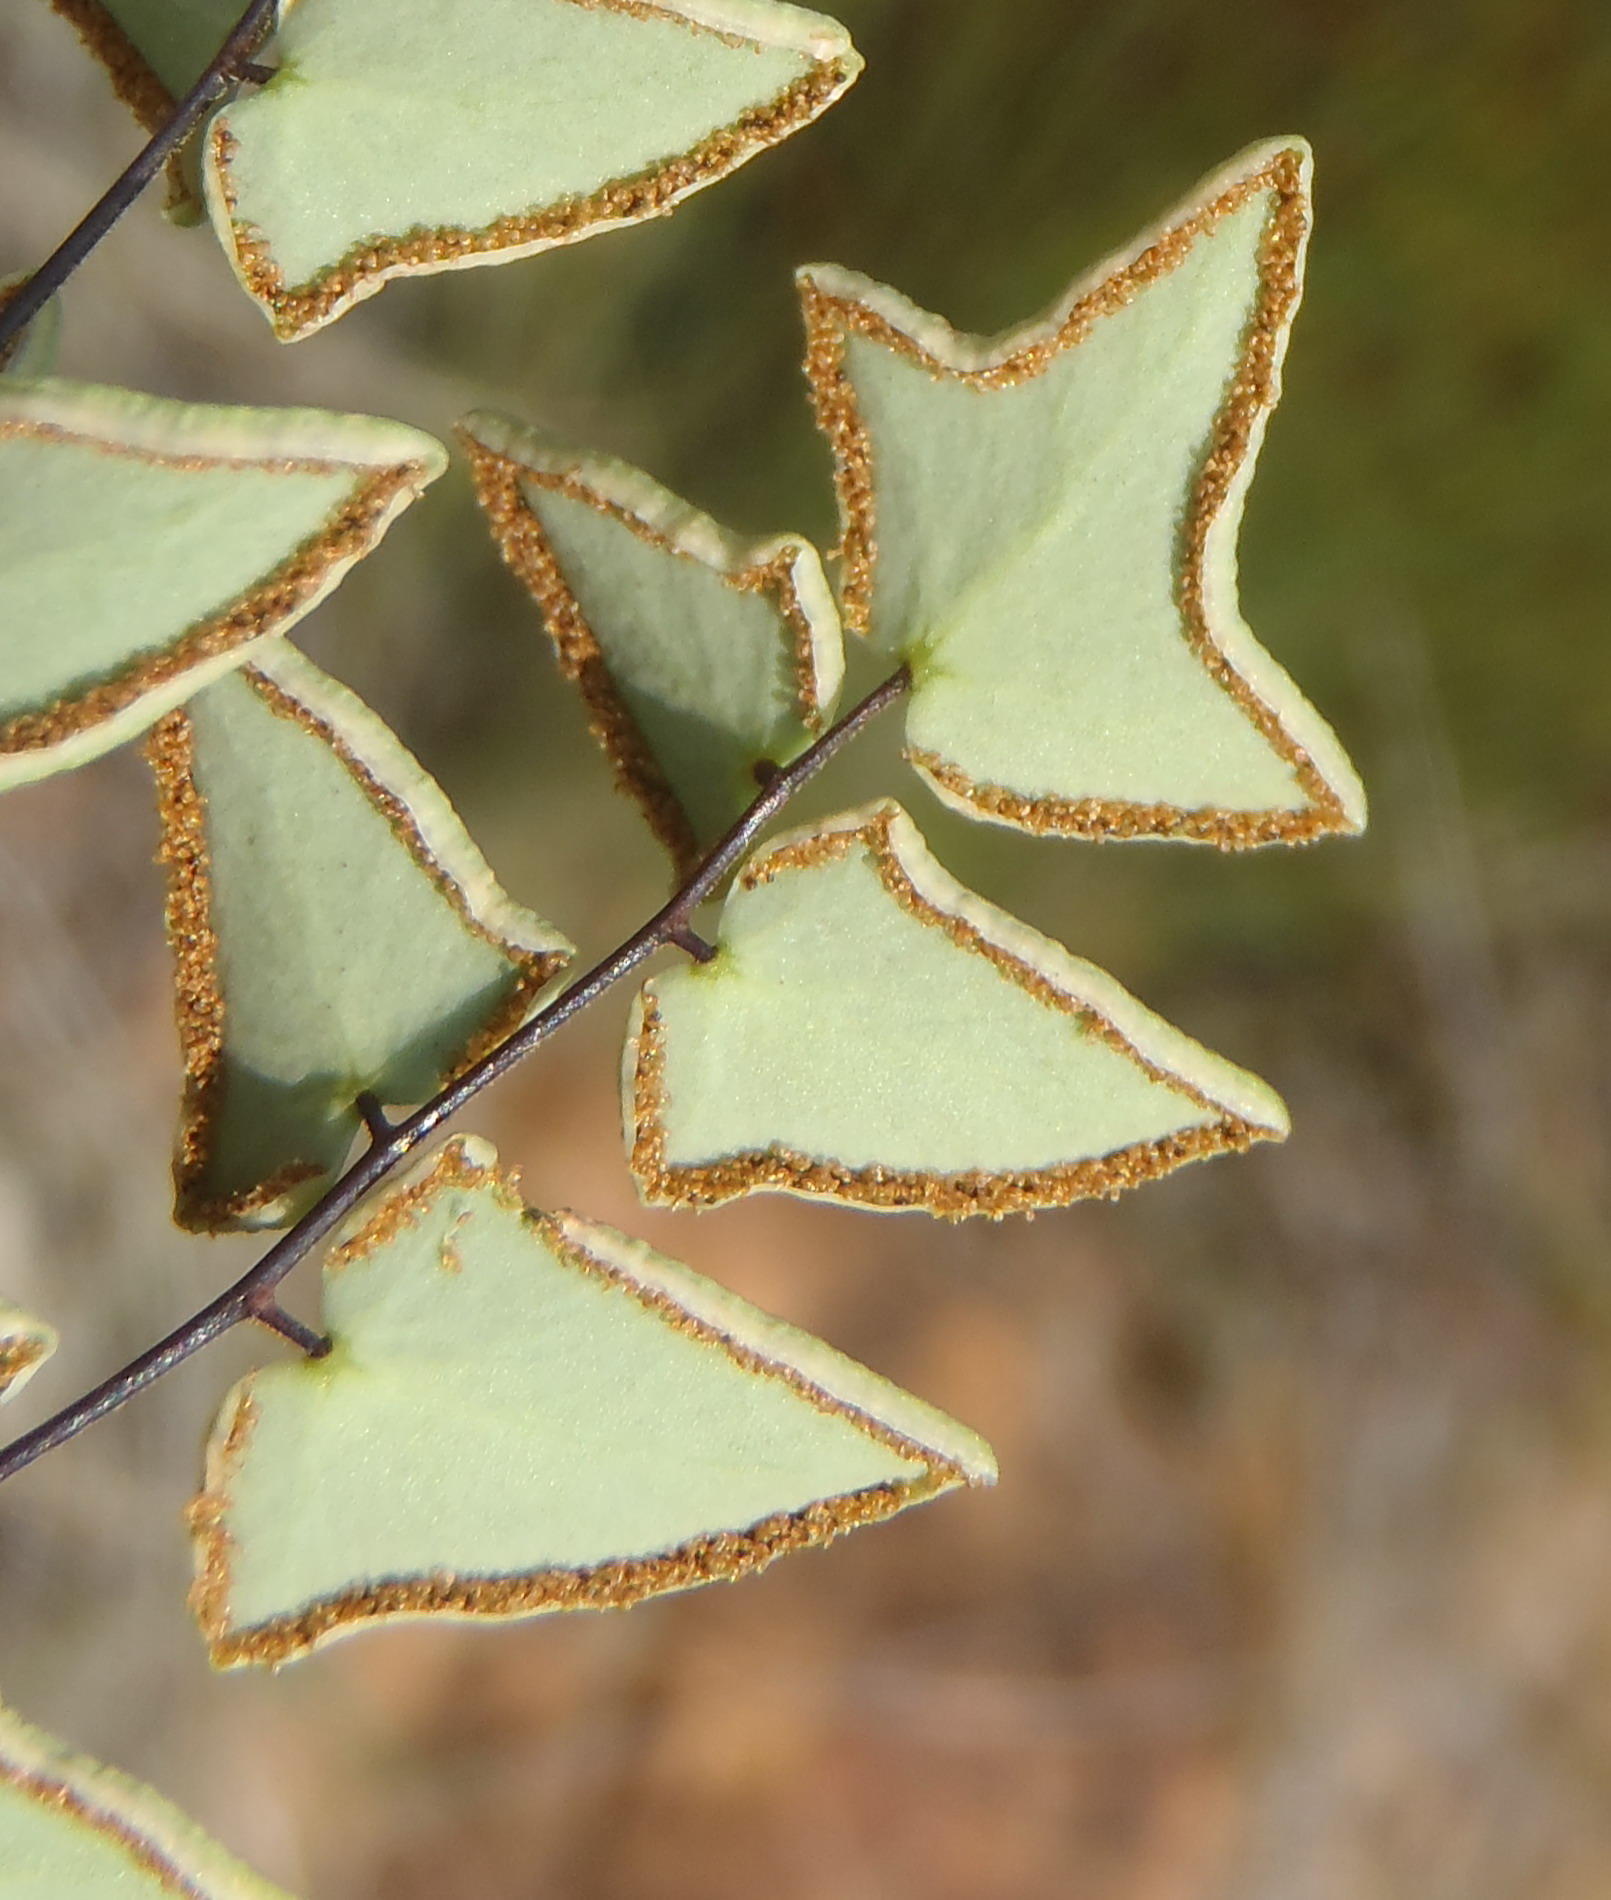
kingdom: Plantae
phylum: Tracheophyta
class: Polypodiopsida
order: Polypodiales
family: Pteridaceae
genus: Pellaea
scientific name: Pellaea leucomelas
